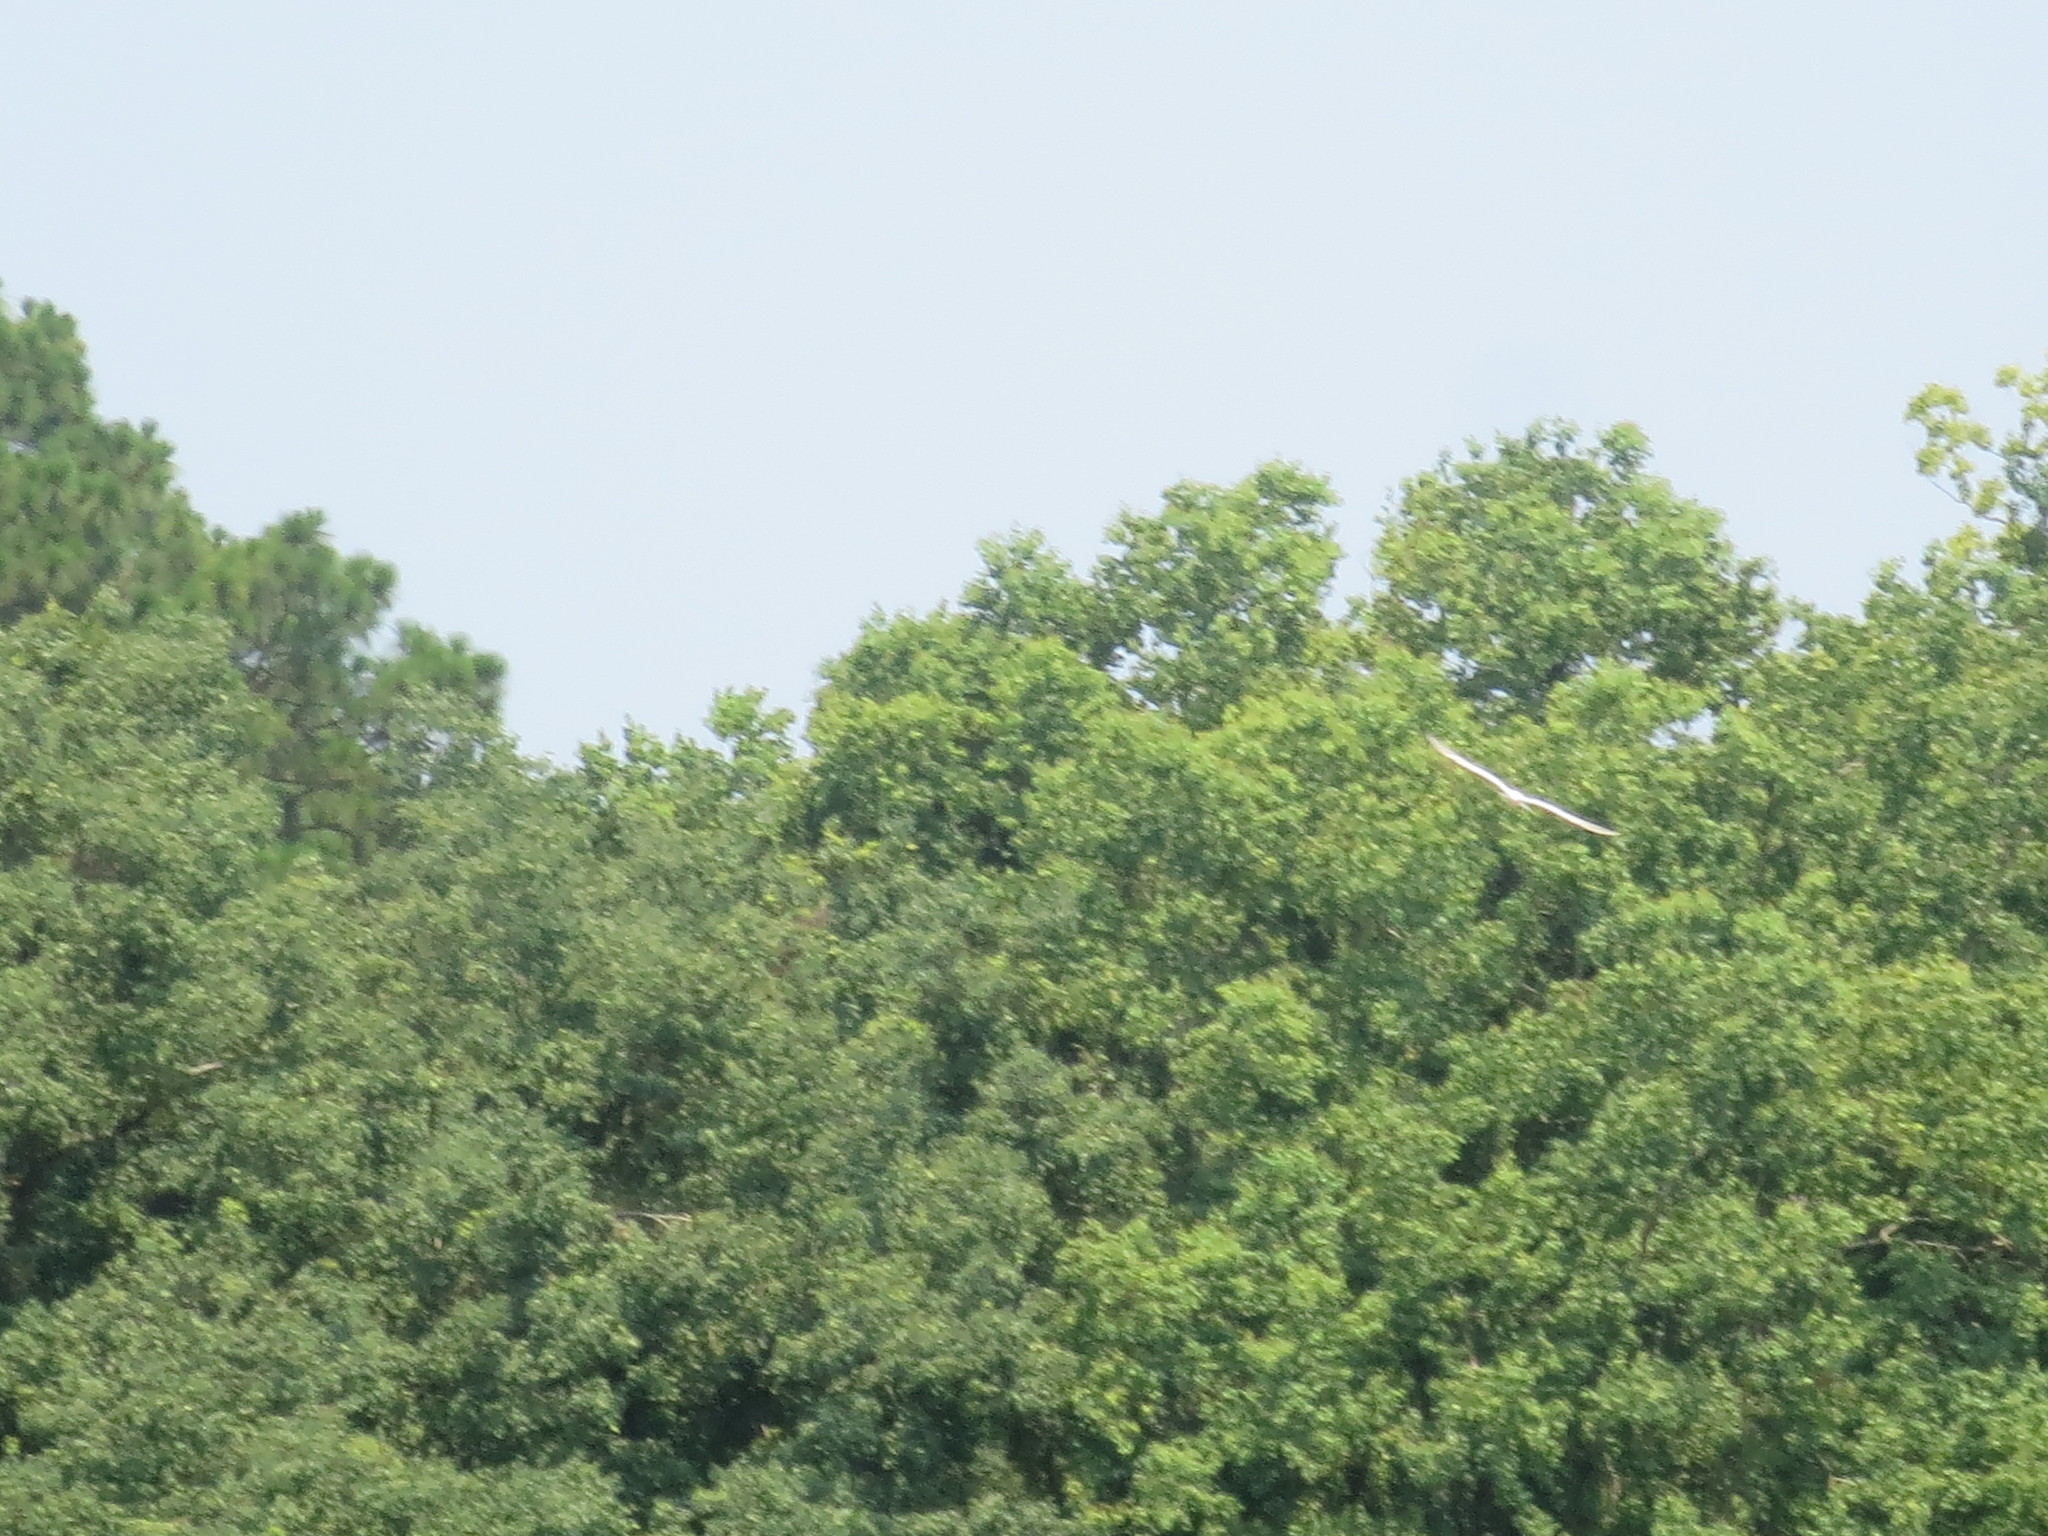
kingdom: Animalia
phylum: Chordata
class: Aves
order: Charadriiformes
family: Laridae
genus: Thalasseus
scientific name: Thalasseus maximus
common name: Royal tern
